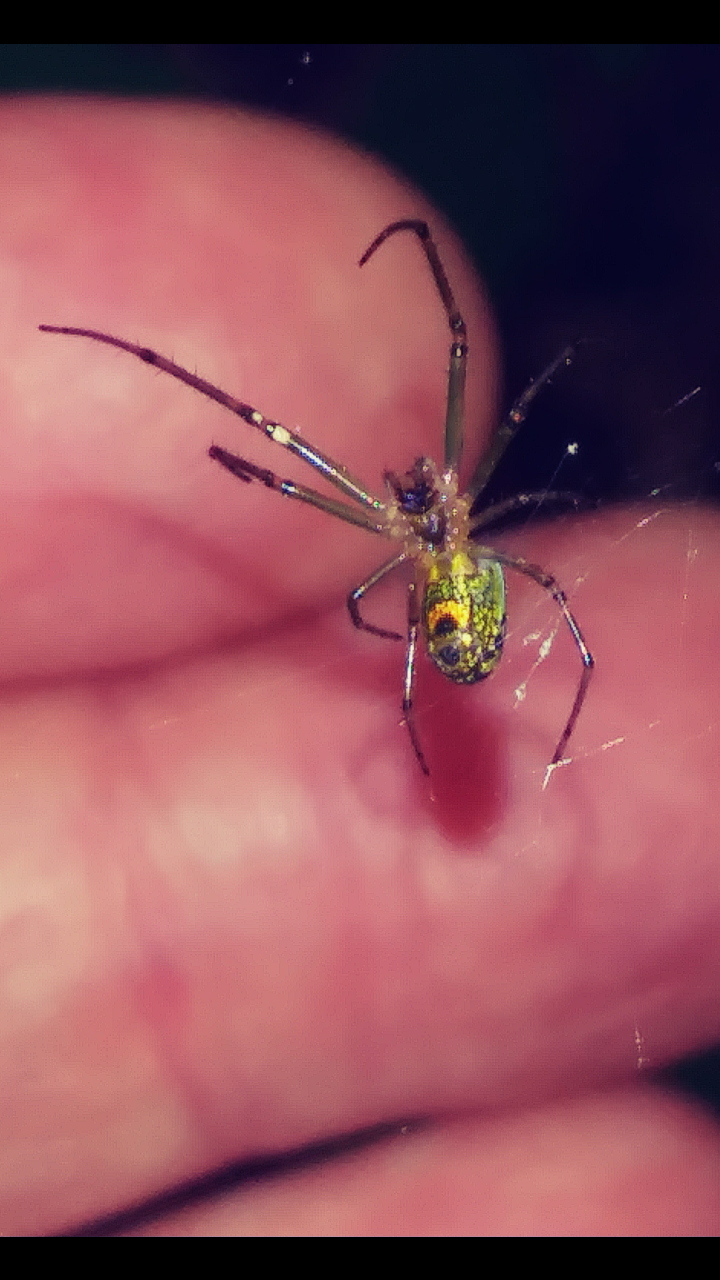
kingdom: Animalia
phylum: Arthropoda
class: Arachnida
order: Araneae
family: Tetragnathidae
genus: Leucauge
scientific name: Leucauge venusta
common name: Longjawed orb weavers
